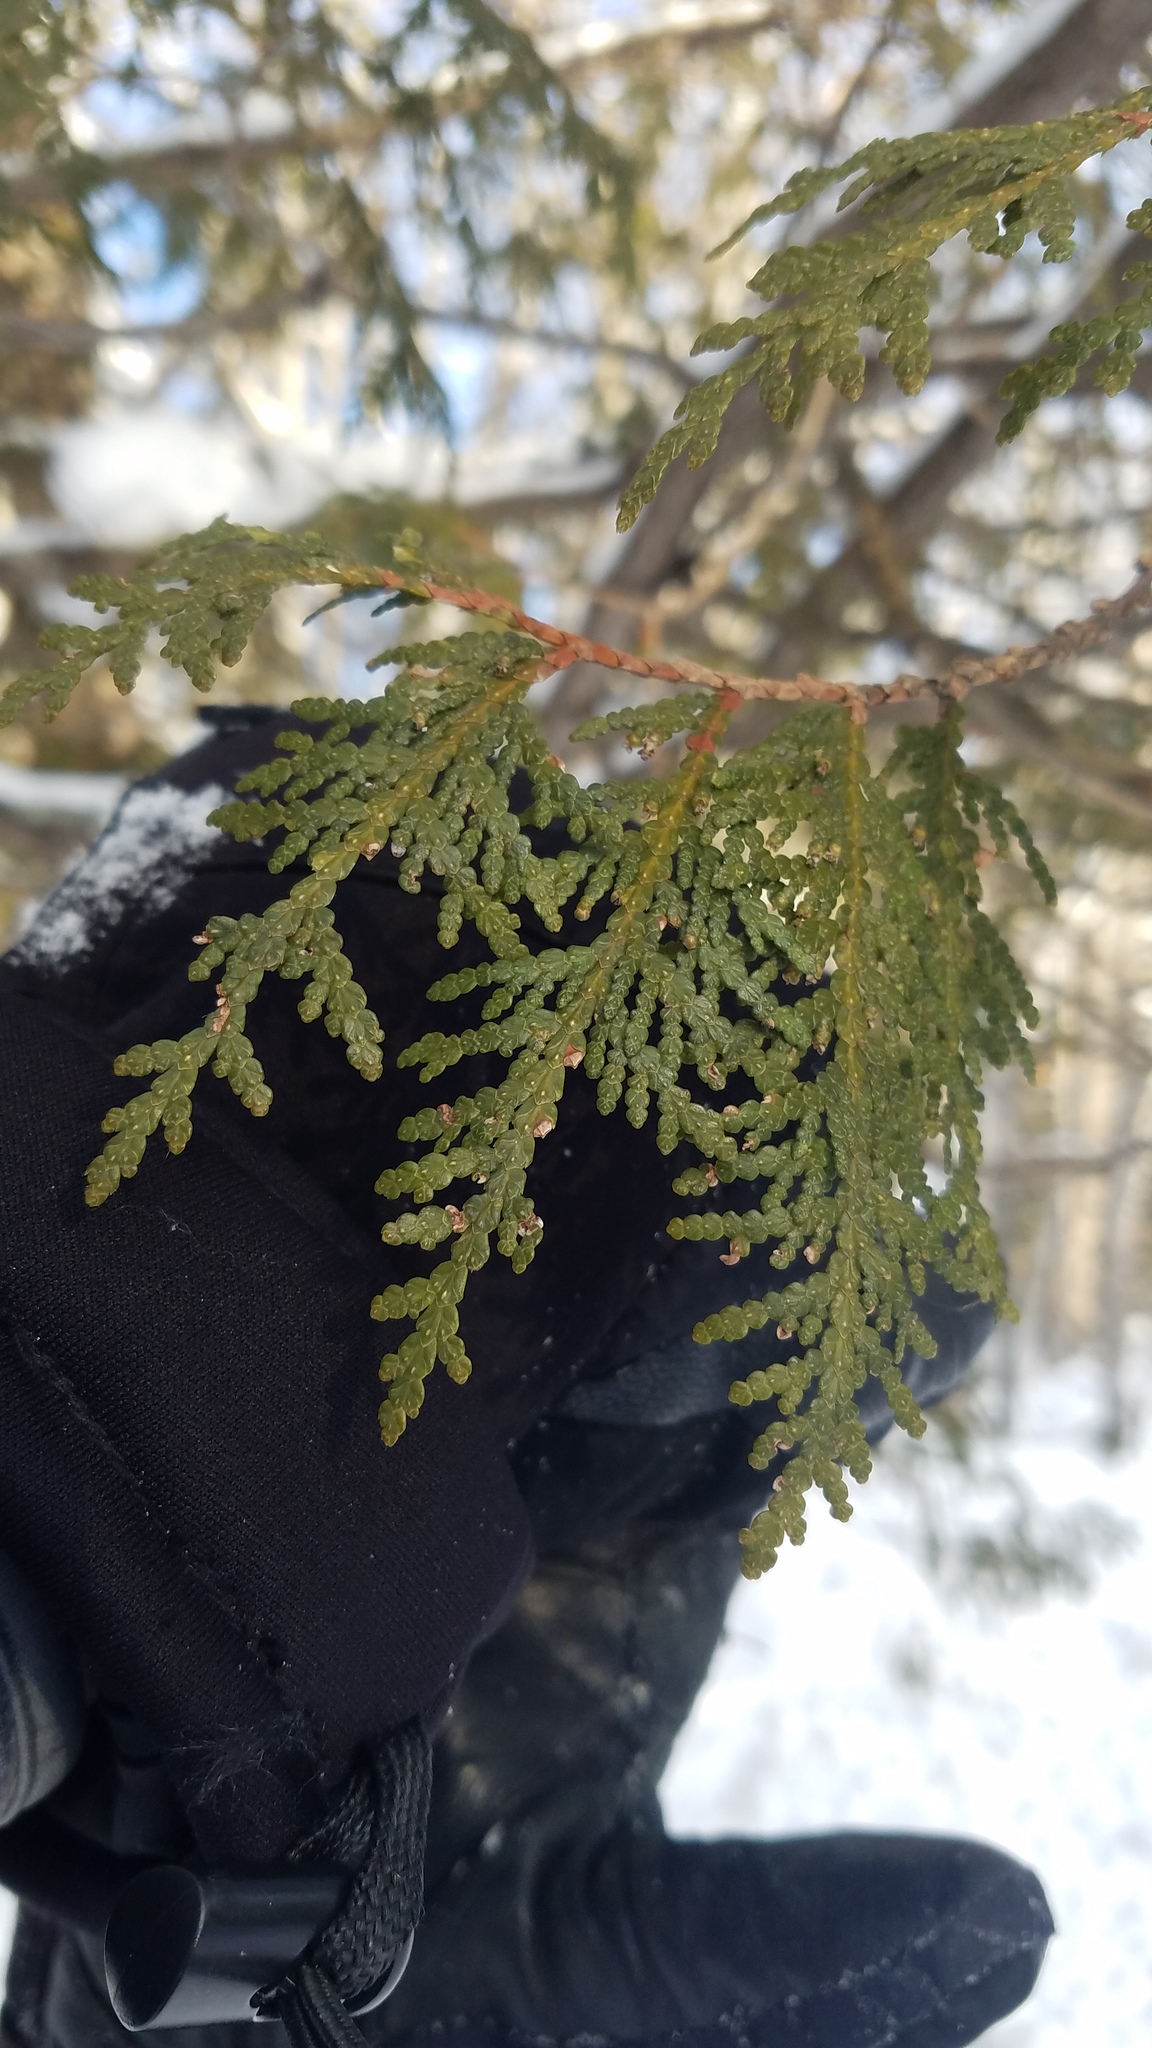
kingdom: Plantae
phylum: Tracheophyta
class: Pinopsida
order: Pinales
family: Cupressaceae
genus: Thuja
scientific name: Thuja occidentalis
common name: Northern white-cedar
